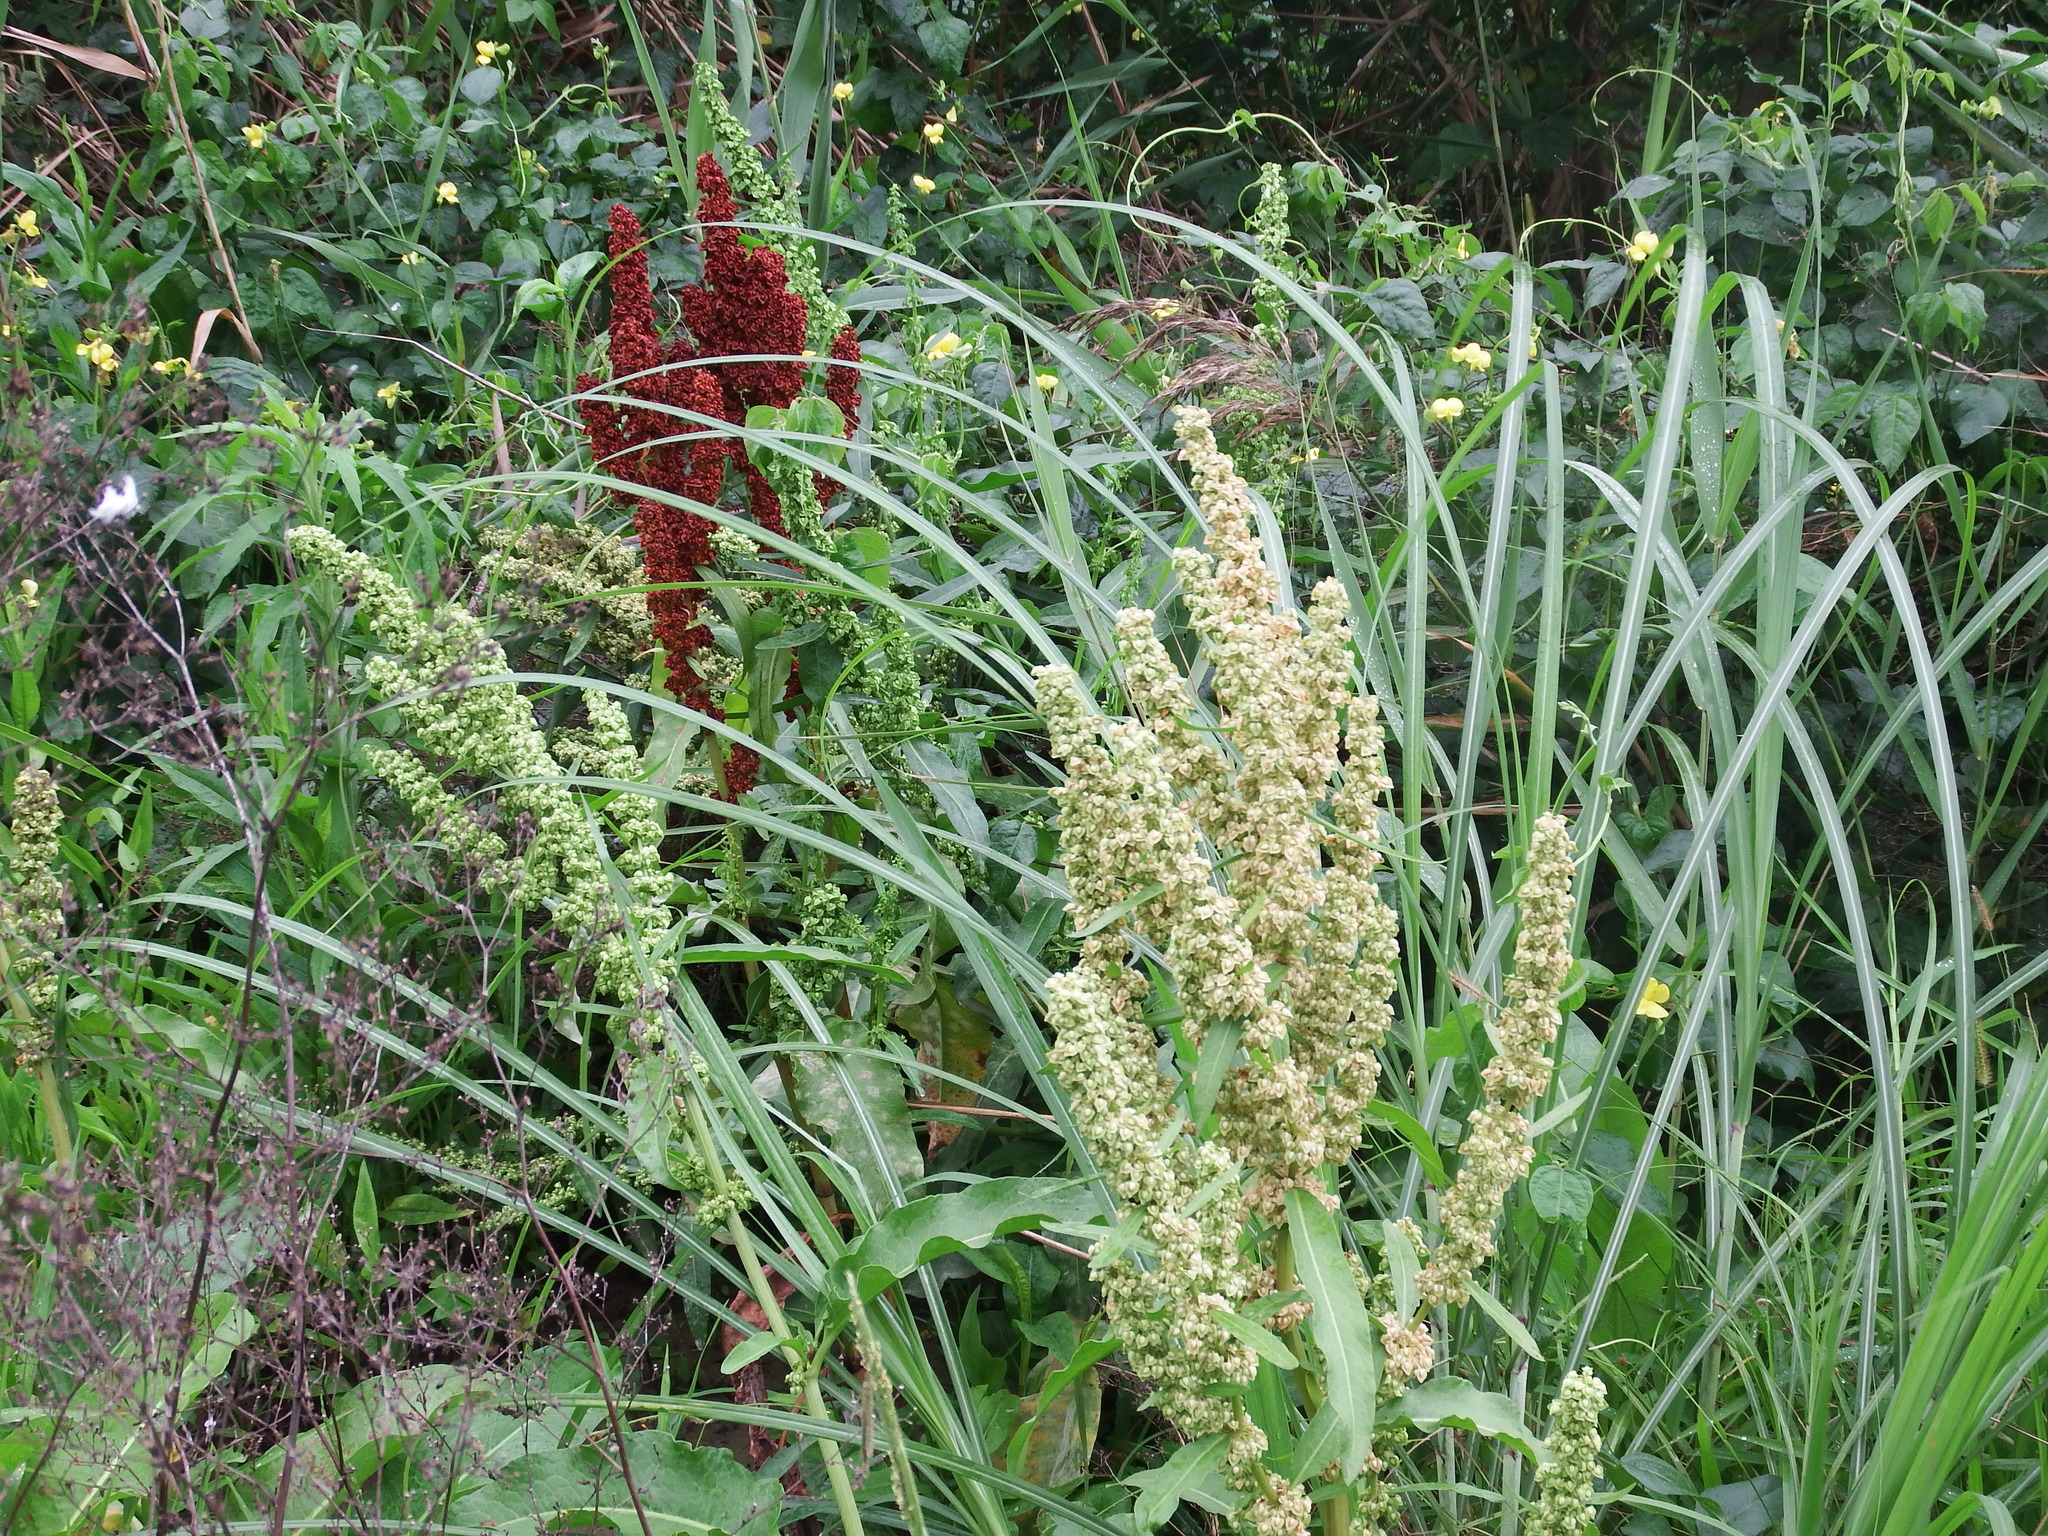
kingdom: Plantae
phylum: Tracheophyta
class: Magnoliopsida
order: Caryophyllales
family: Polygonaceae
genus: Rumex
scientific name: Rumex japonicus
